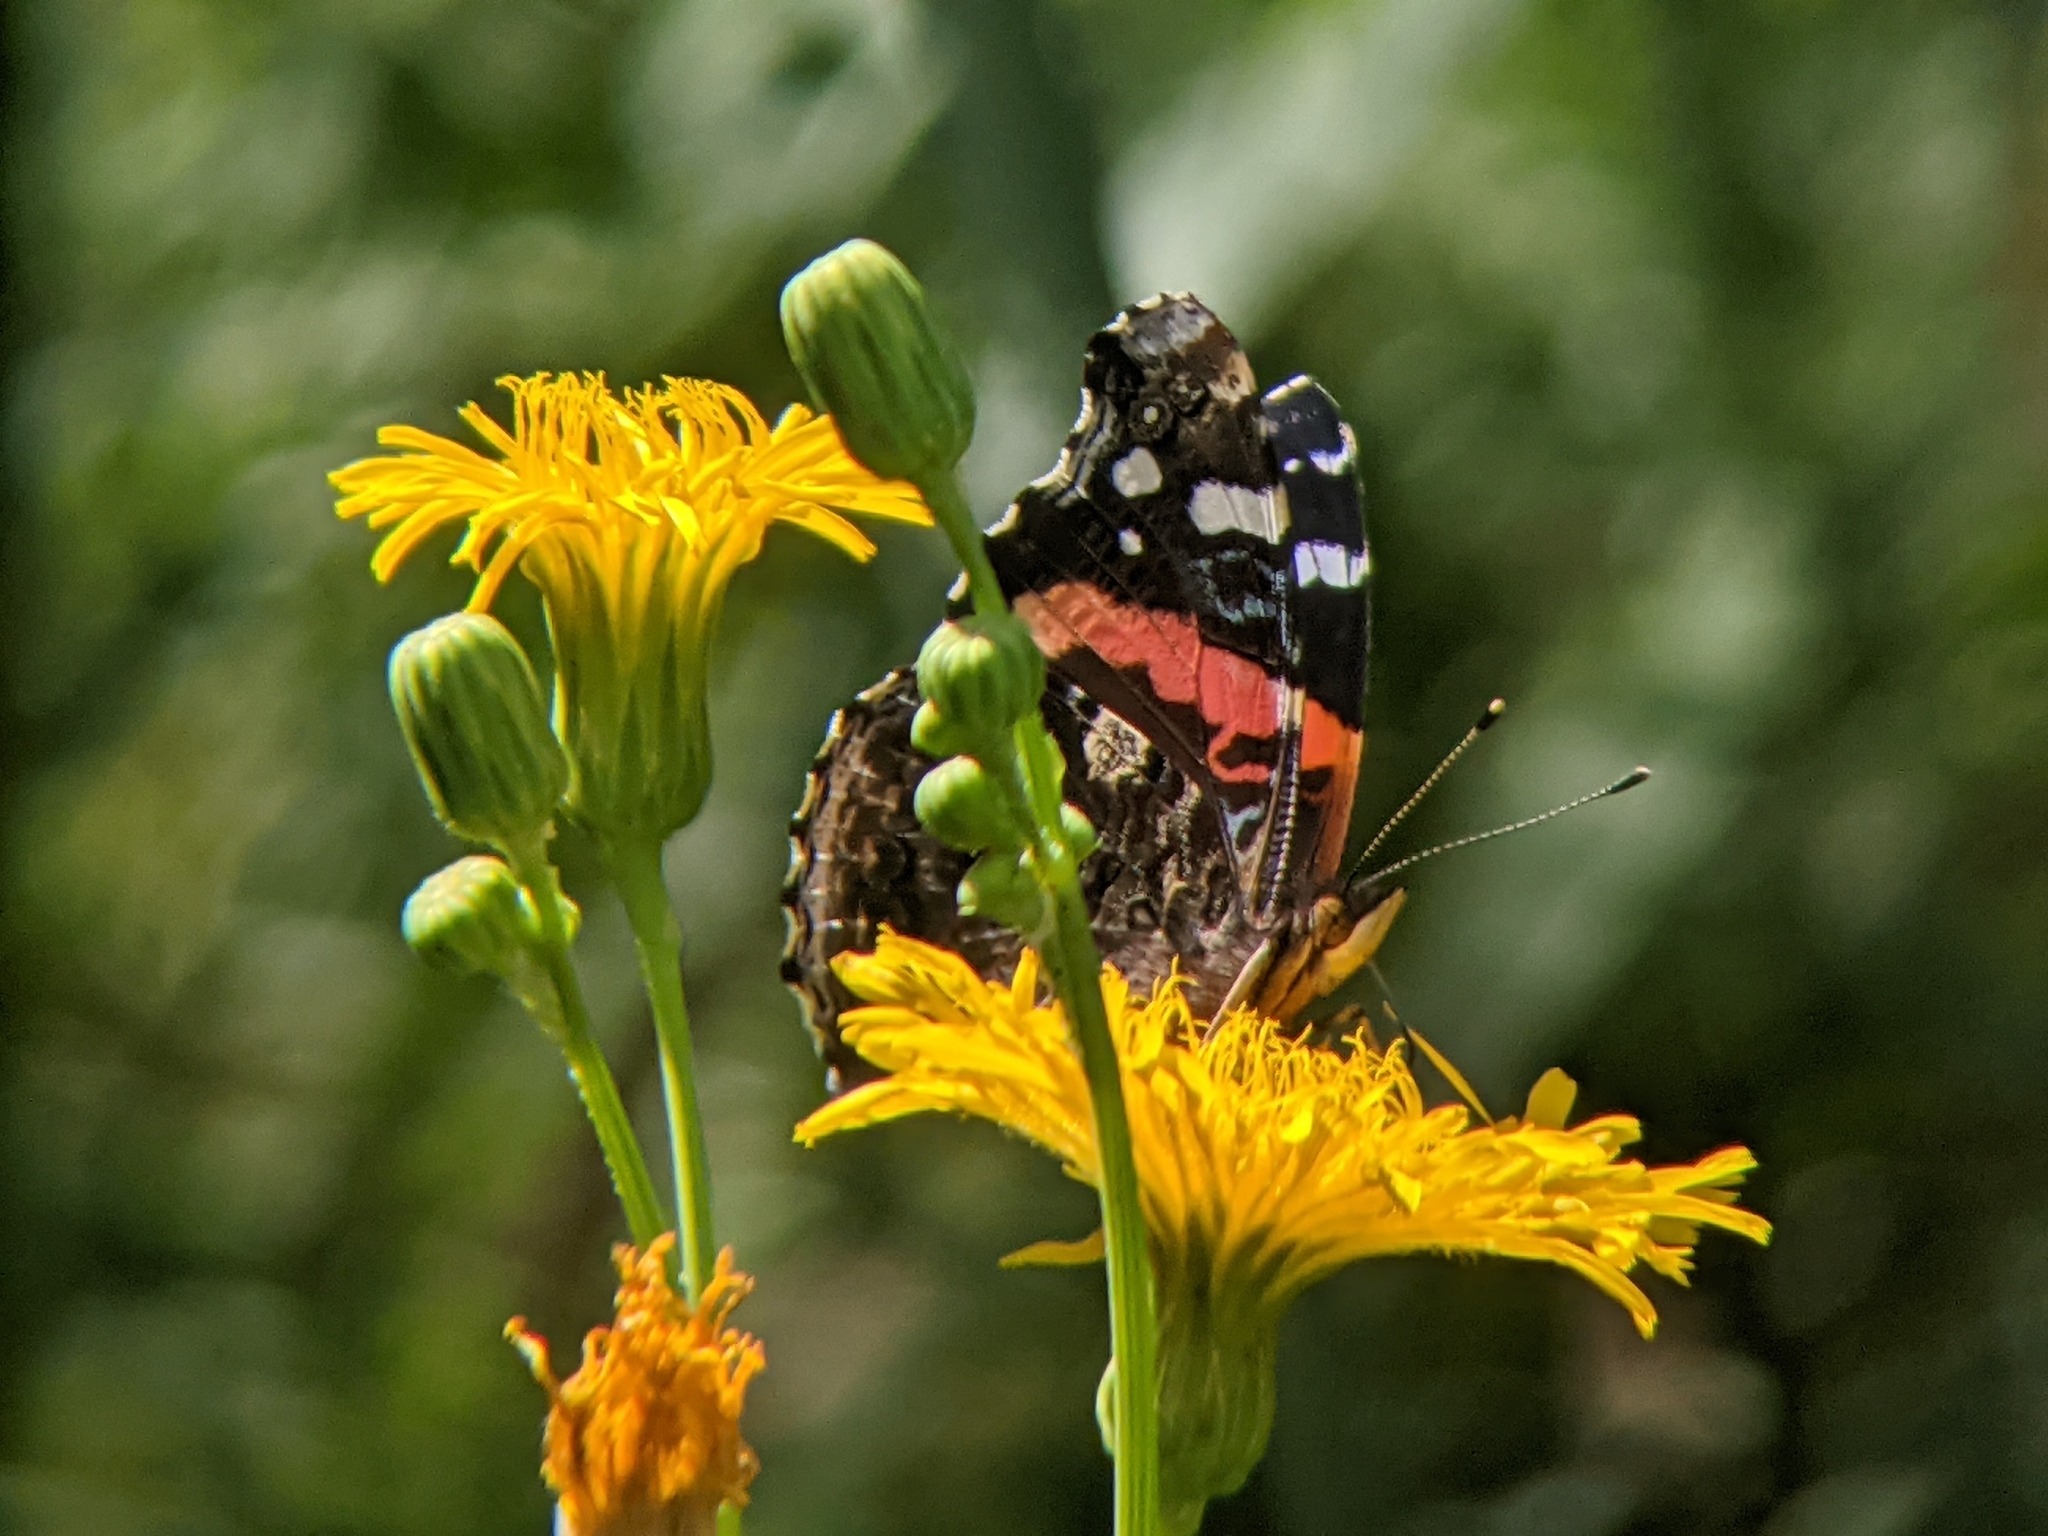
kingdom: Animalia
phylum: Arthropoda
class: Insecta
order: Lepidoptera
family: Nymphalidae
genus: Vanessa
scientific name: Vanessa atalanta
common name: Red admiral
